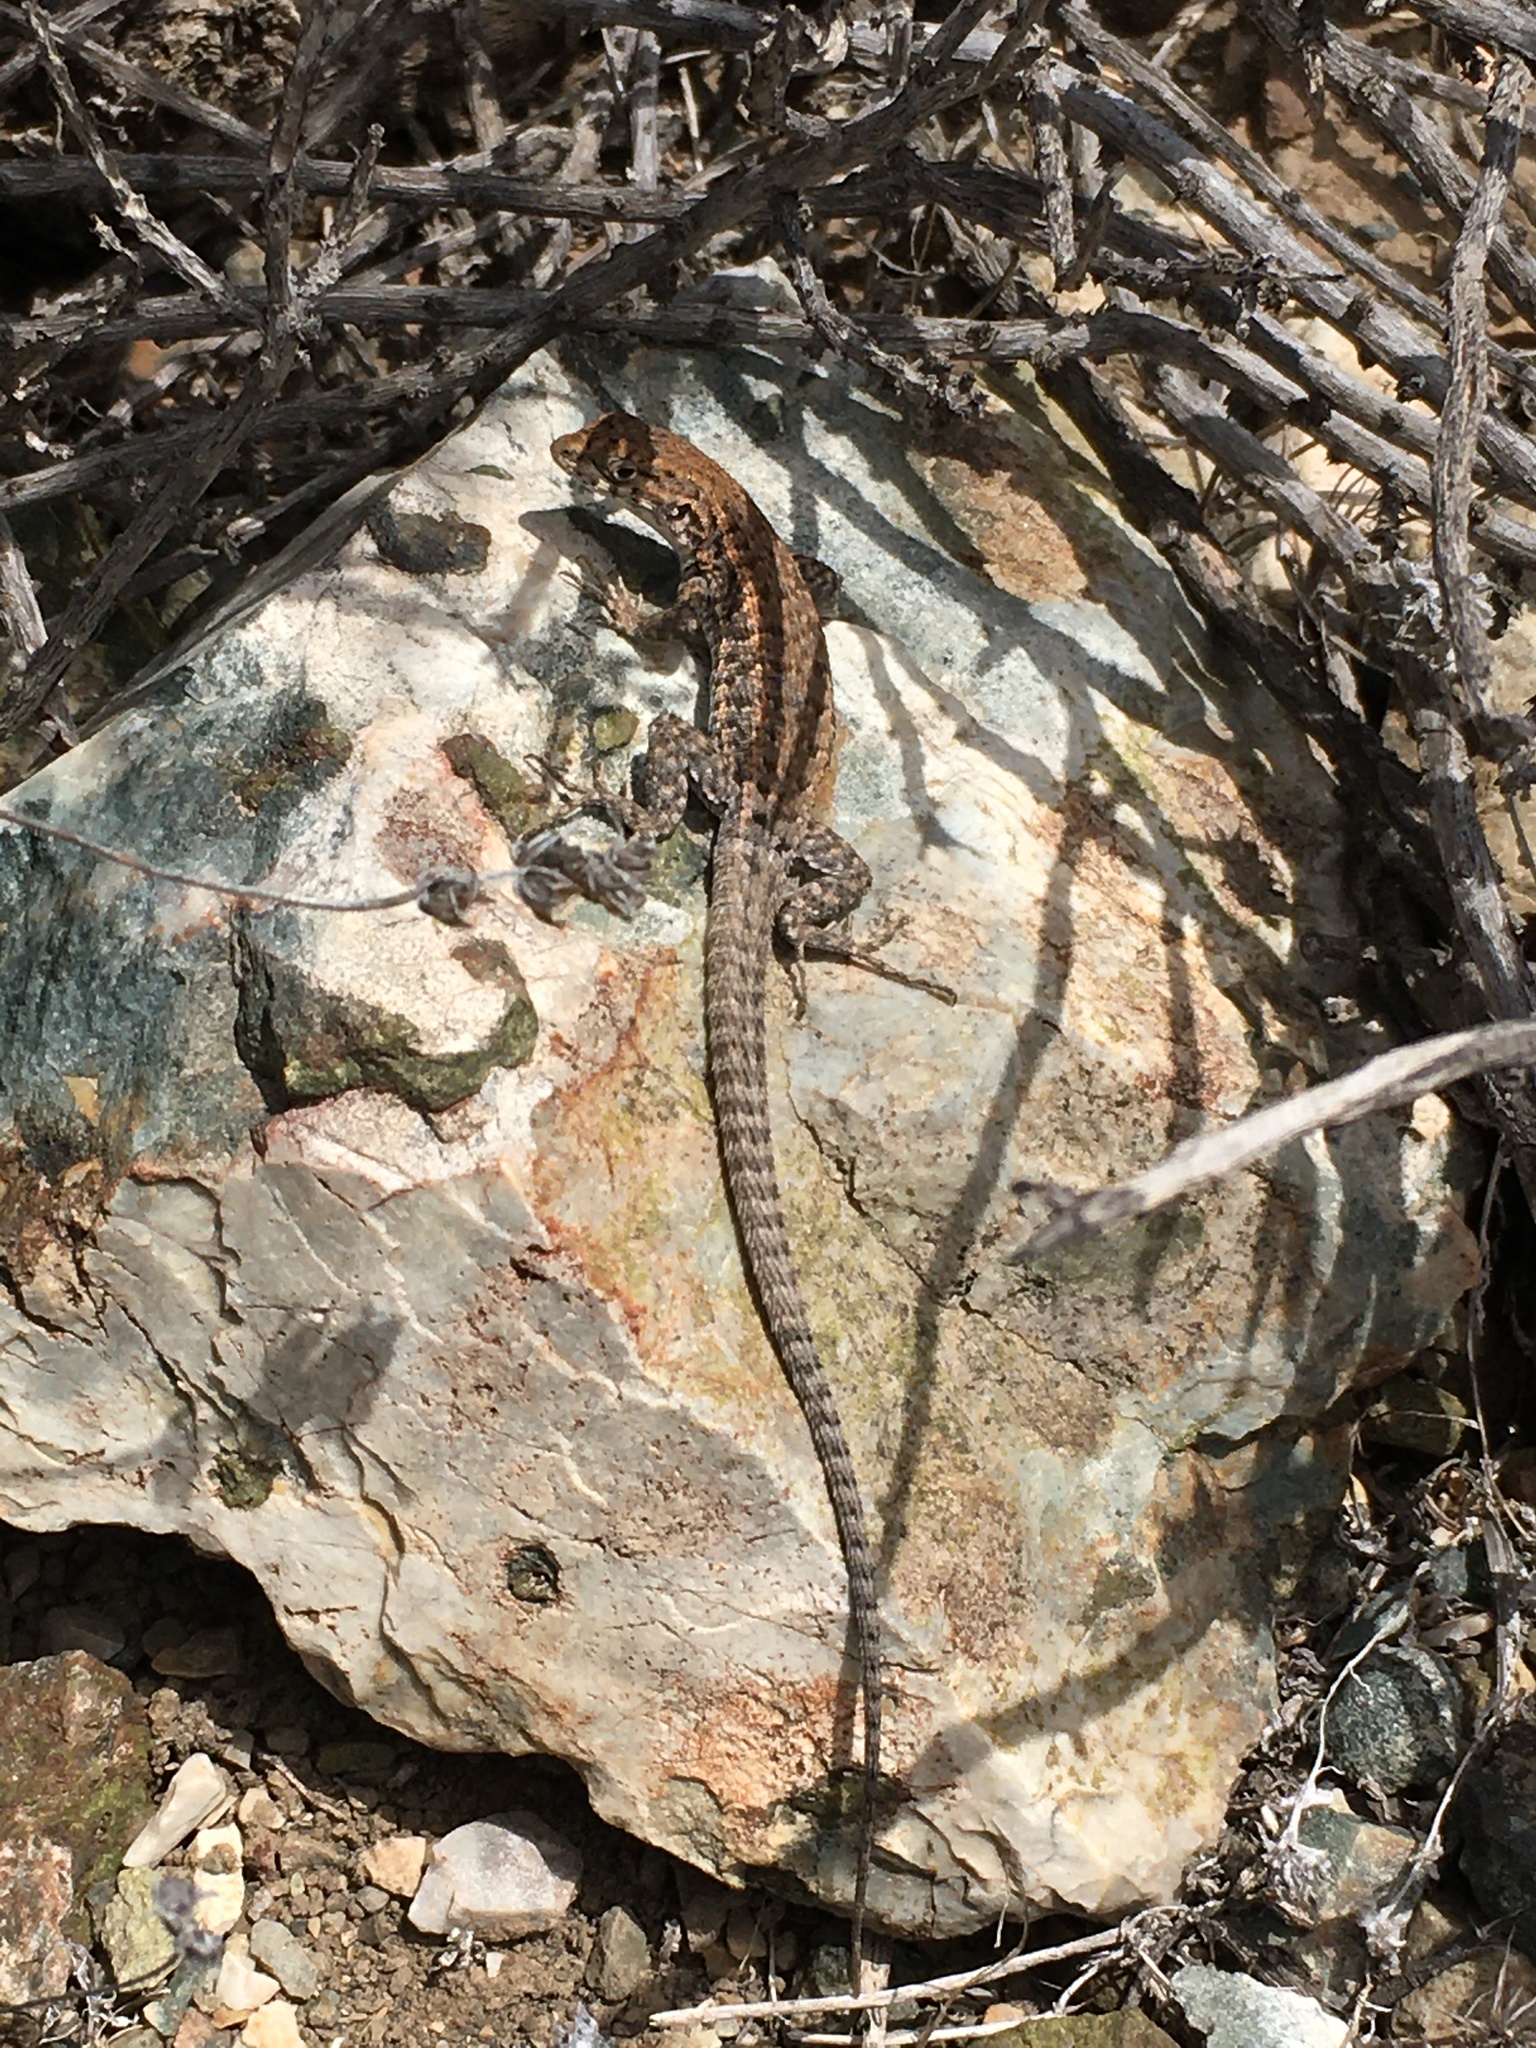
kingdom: Animalia
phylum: Chordata
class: Squamata
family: Liolaemidae
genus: Liolaemus
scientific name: Liolaemus platei
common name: Braided tree iguana
